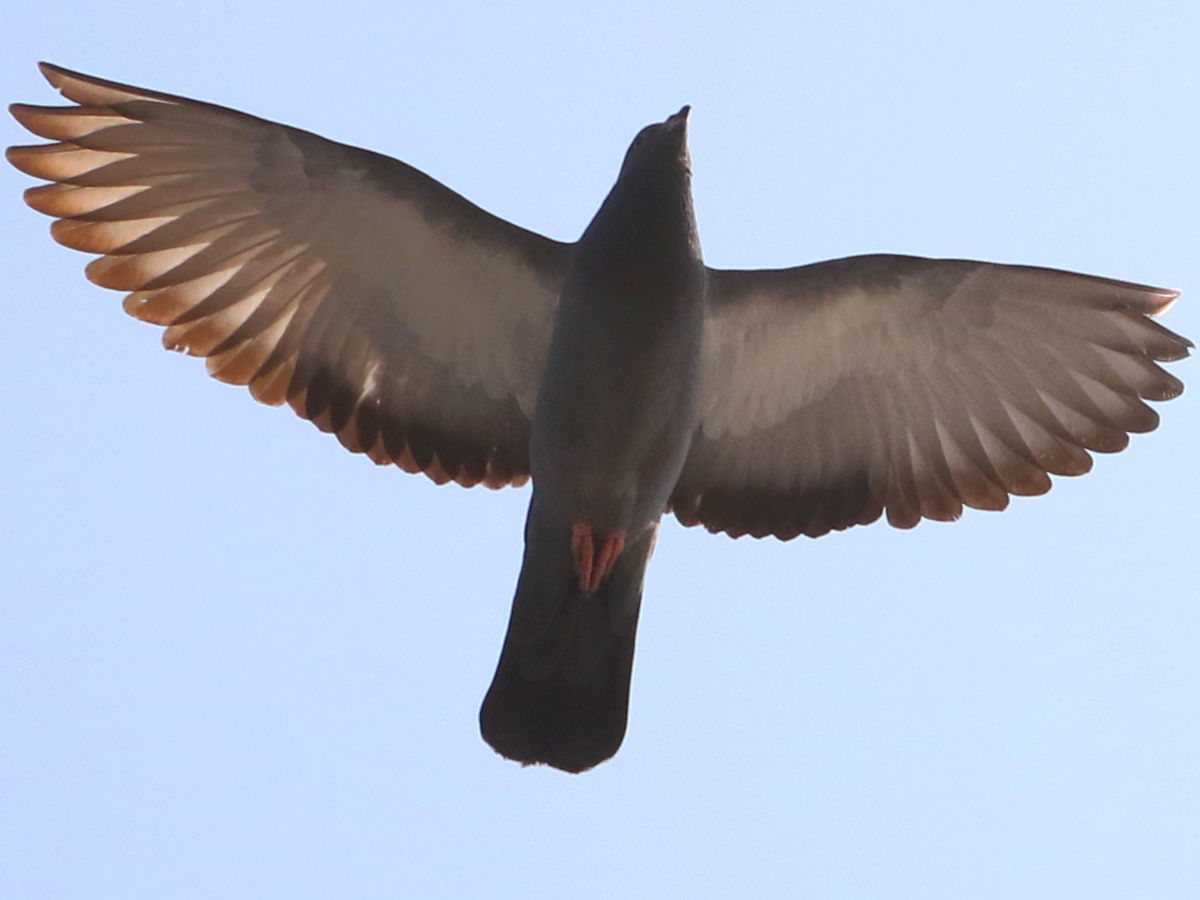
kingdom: Animalia
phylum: Chordata
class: Aves
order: Columbiformes
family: Columbidae
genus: Columba
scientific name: Columba livia
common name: Rock pigeon
